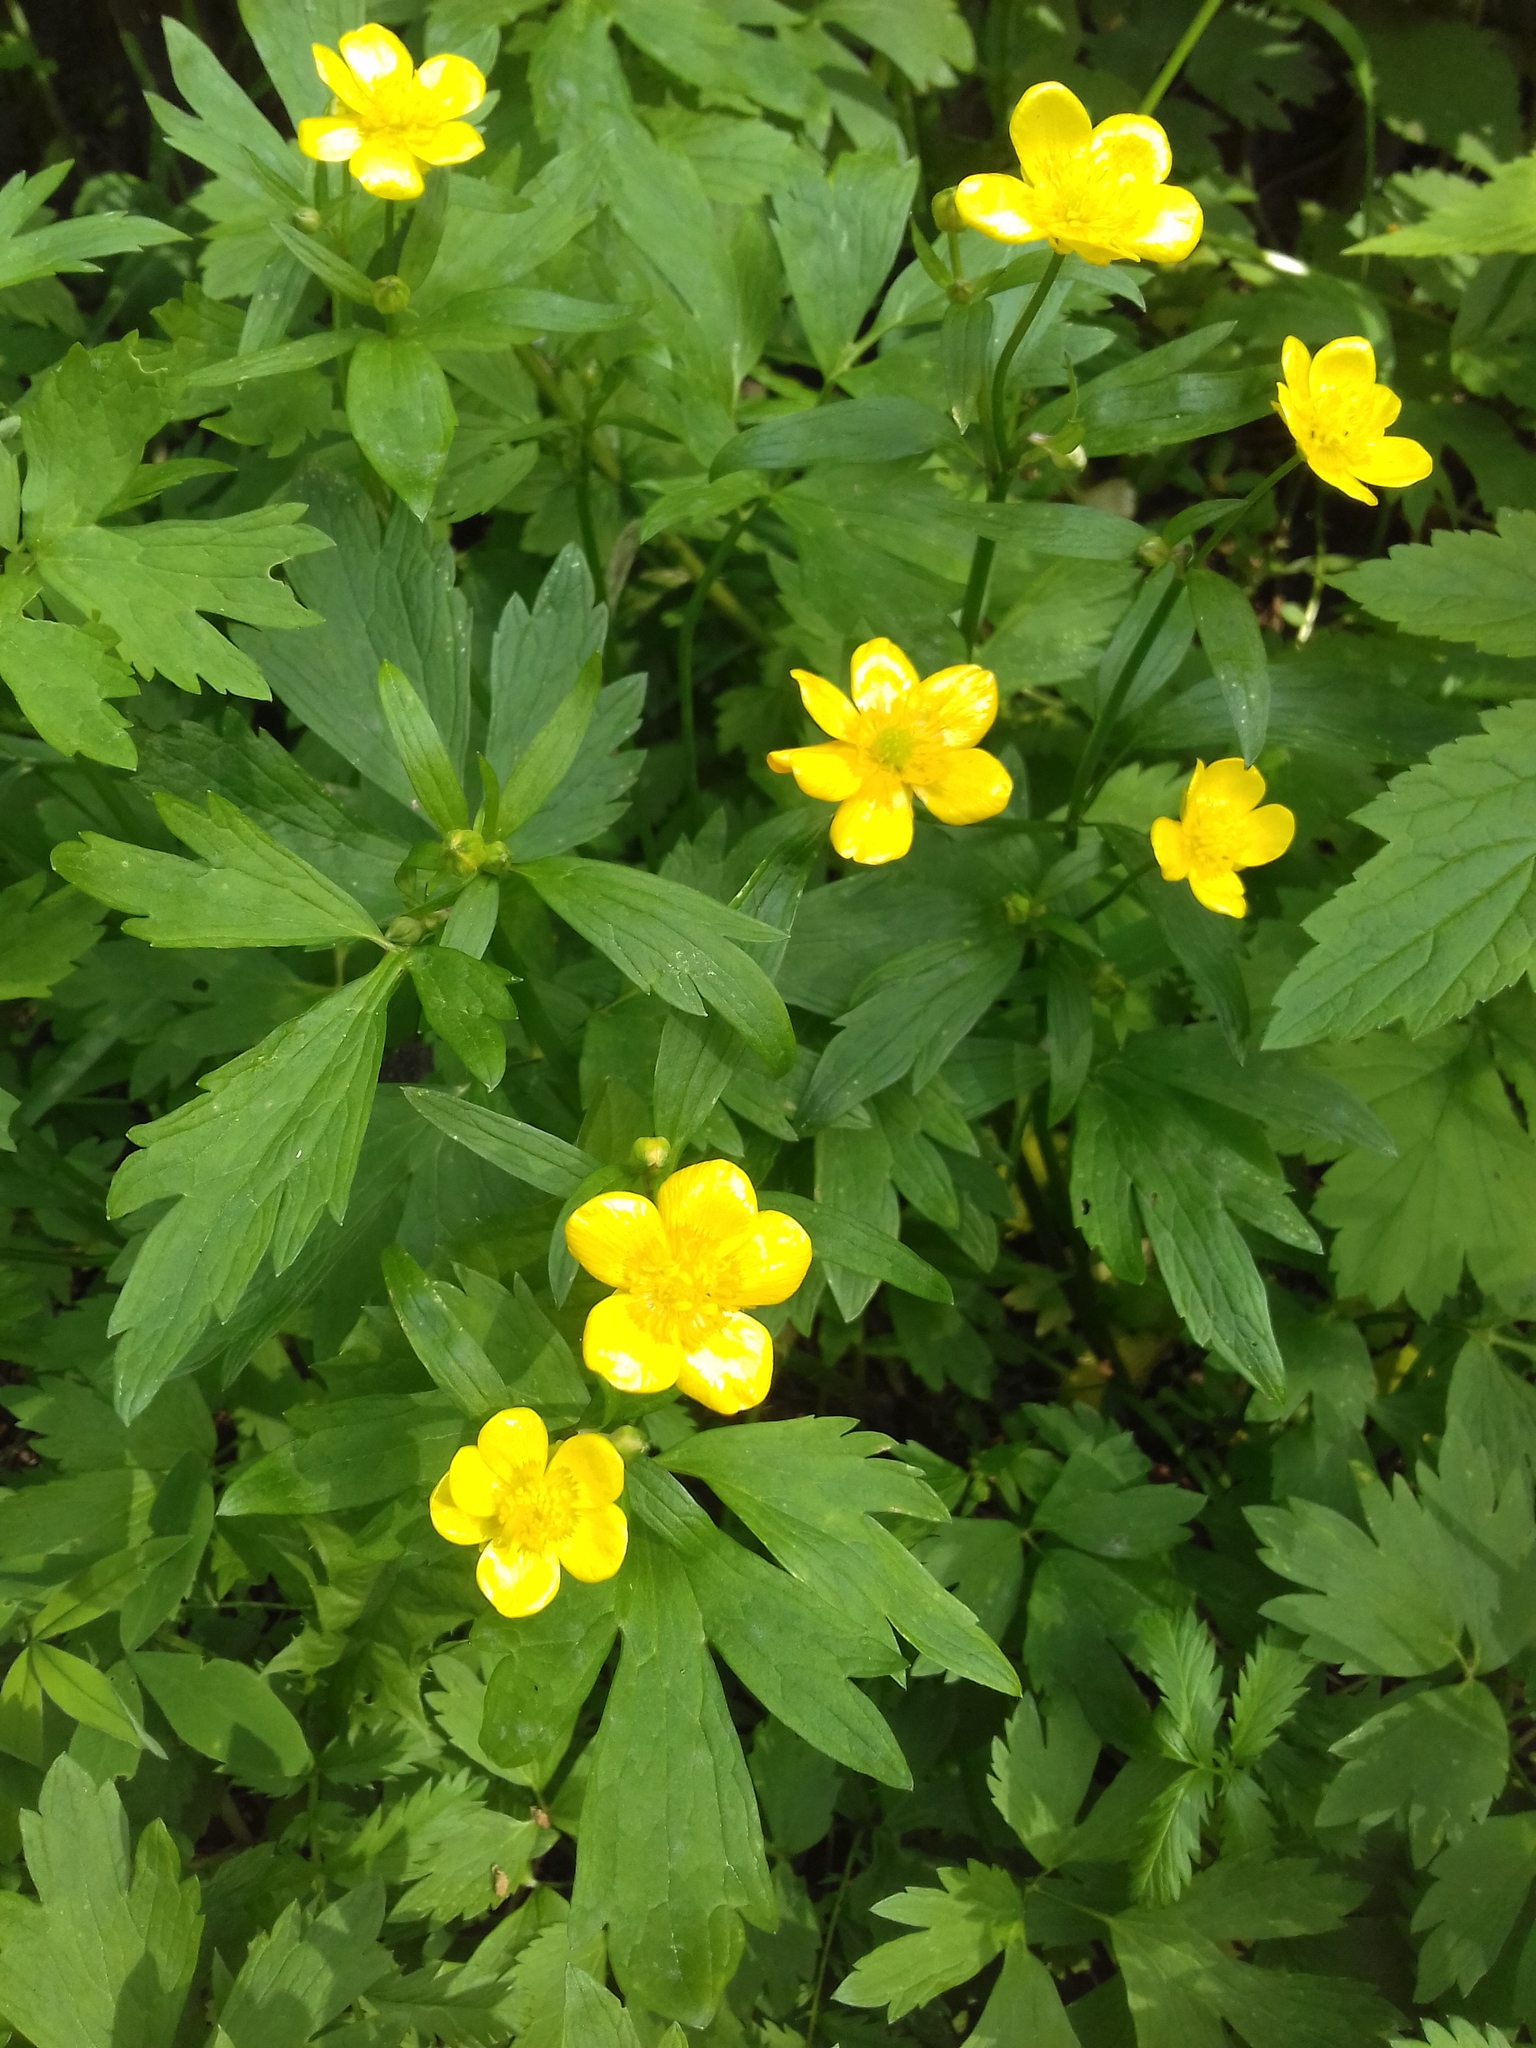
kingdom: Plantae
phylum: Tracheophyta
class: Magnoliopsida
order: Ranunculales
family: Ranunculaceae
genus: Ranunculus
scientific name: Ranunculus repens
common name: Creeping buttercup
